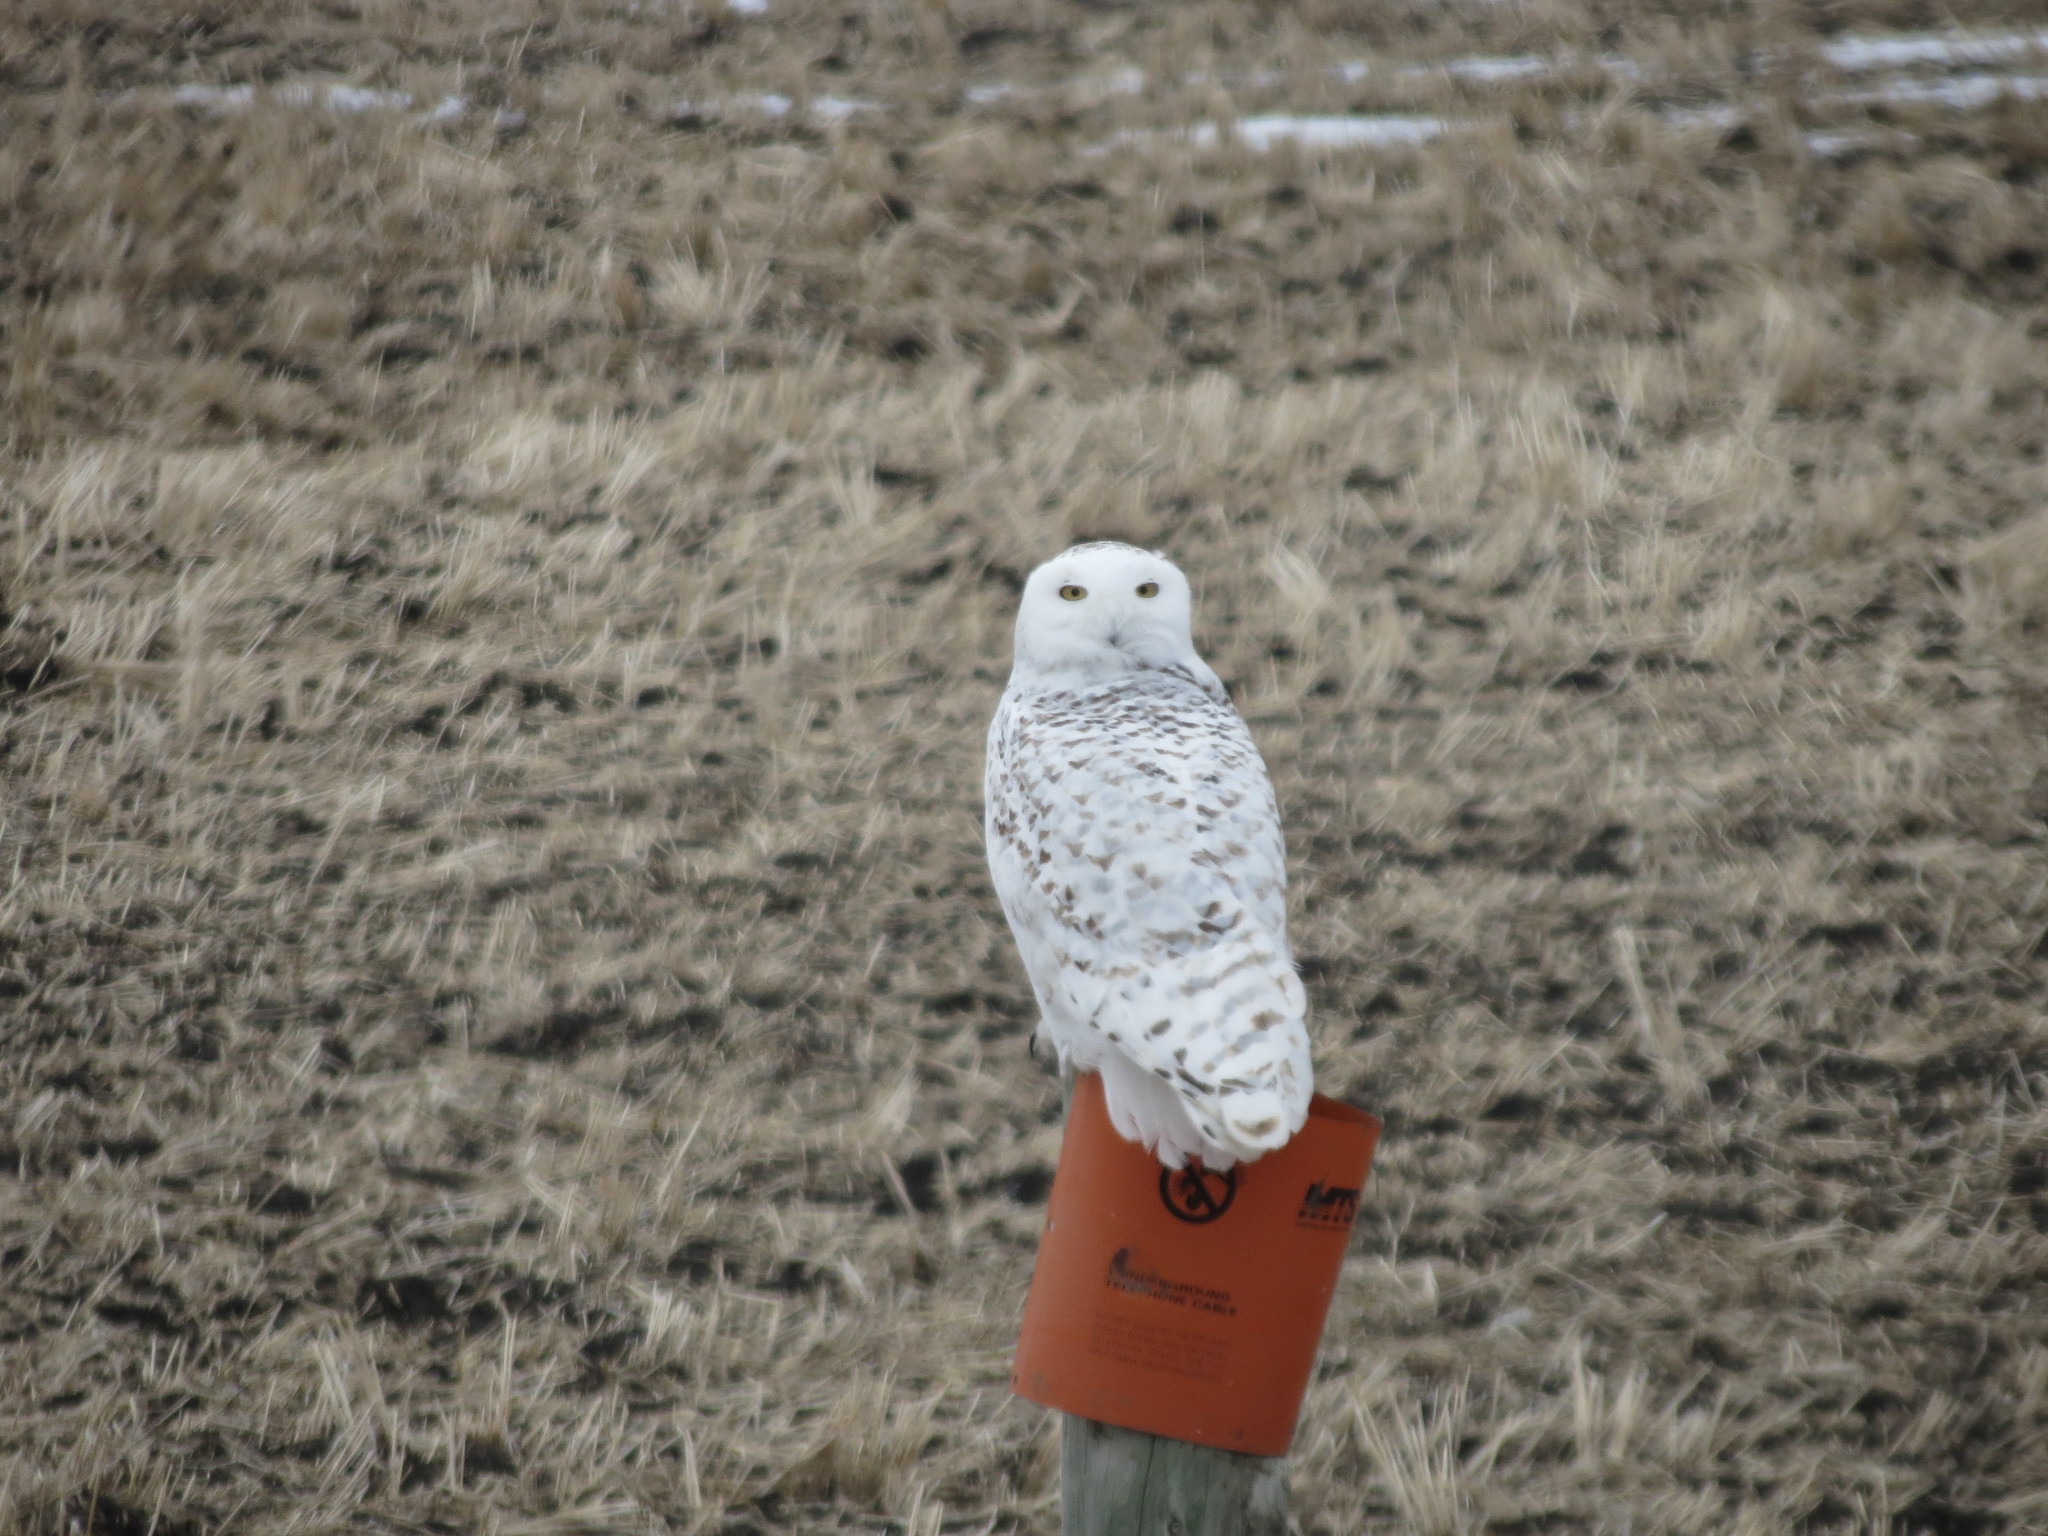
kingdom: Animalia
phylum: Chordata
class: Aves
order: Strigiformes
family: Strigidae
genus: Bubo
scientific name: Bubo scandiacus
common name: Snowy owl
